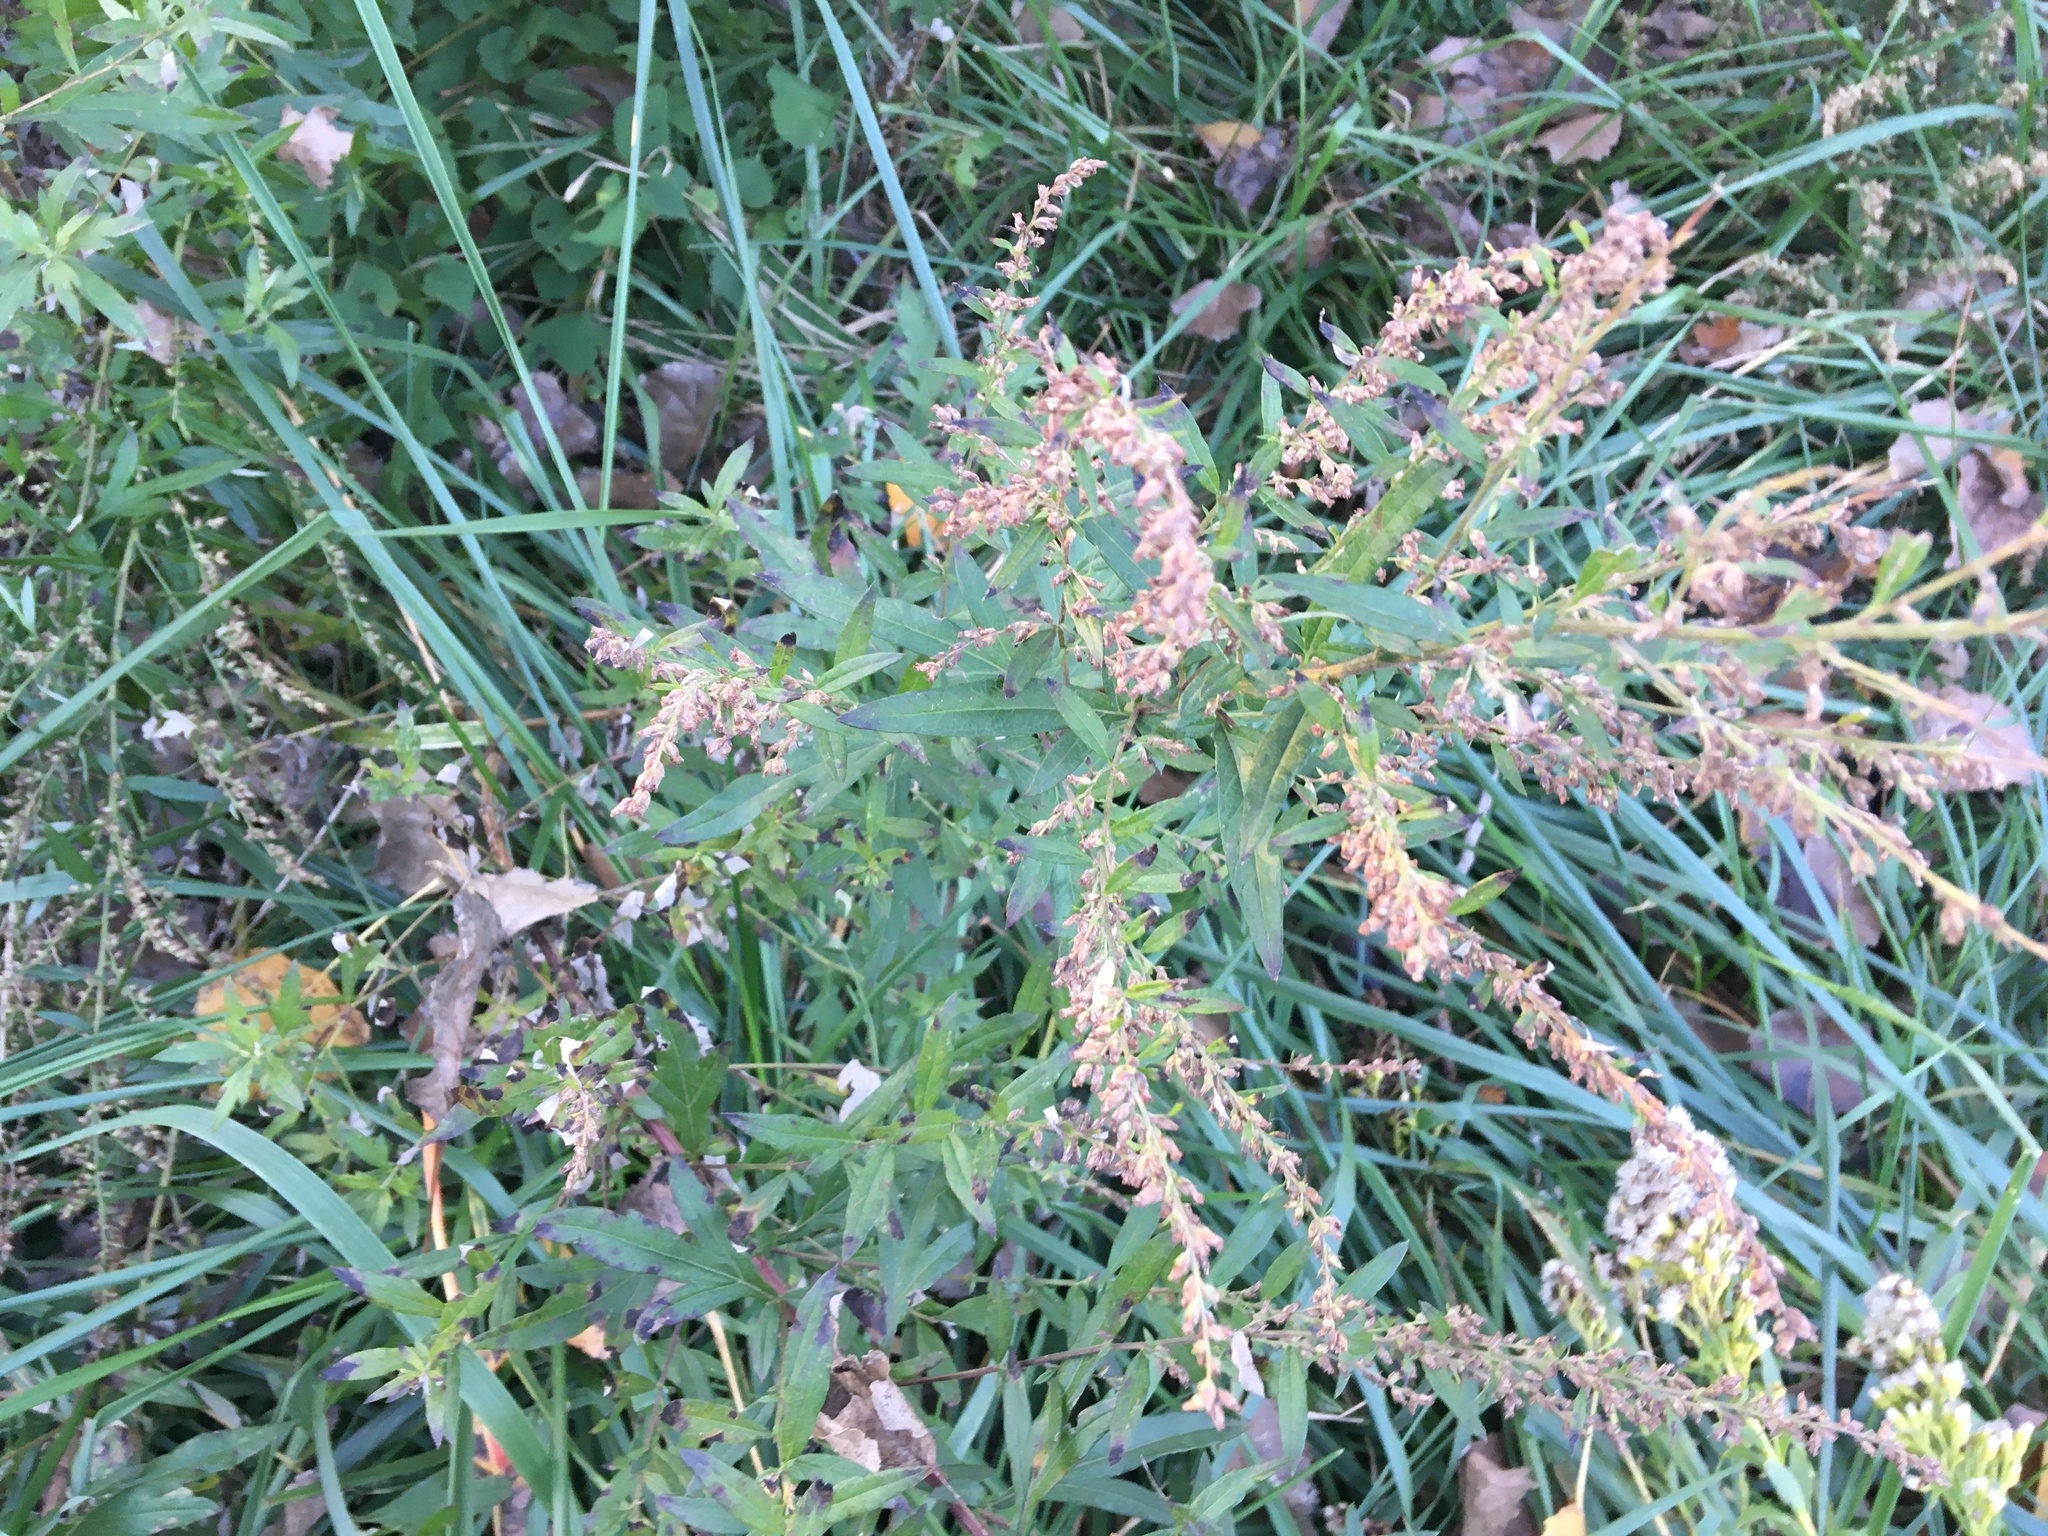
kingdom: Plantae
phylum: Tracheophyta
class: Magnoliopsida
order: Asterales
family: Asteraceae
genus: Artemisia
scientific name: Artemisia vulgaris
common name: Mugwort
